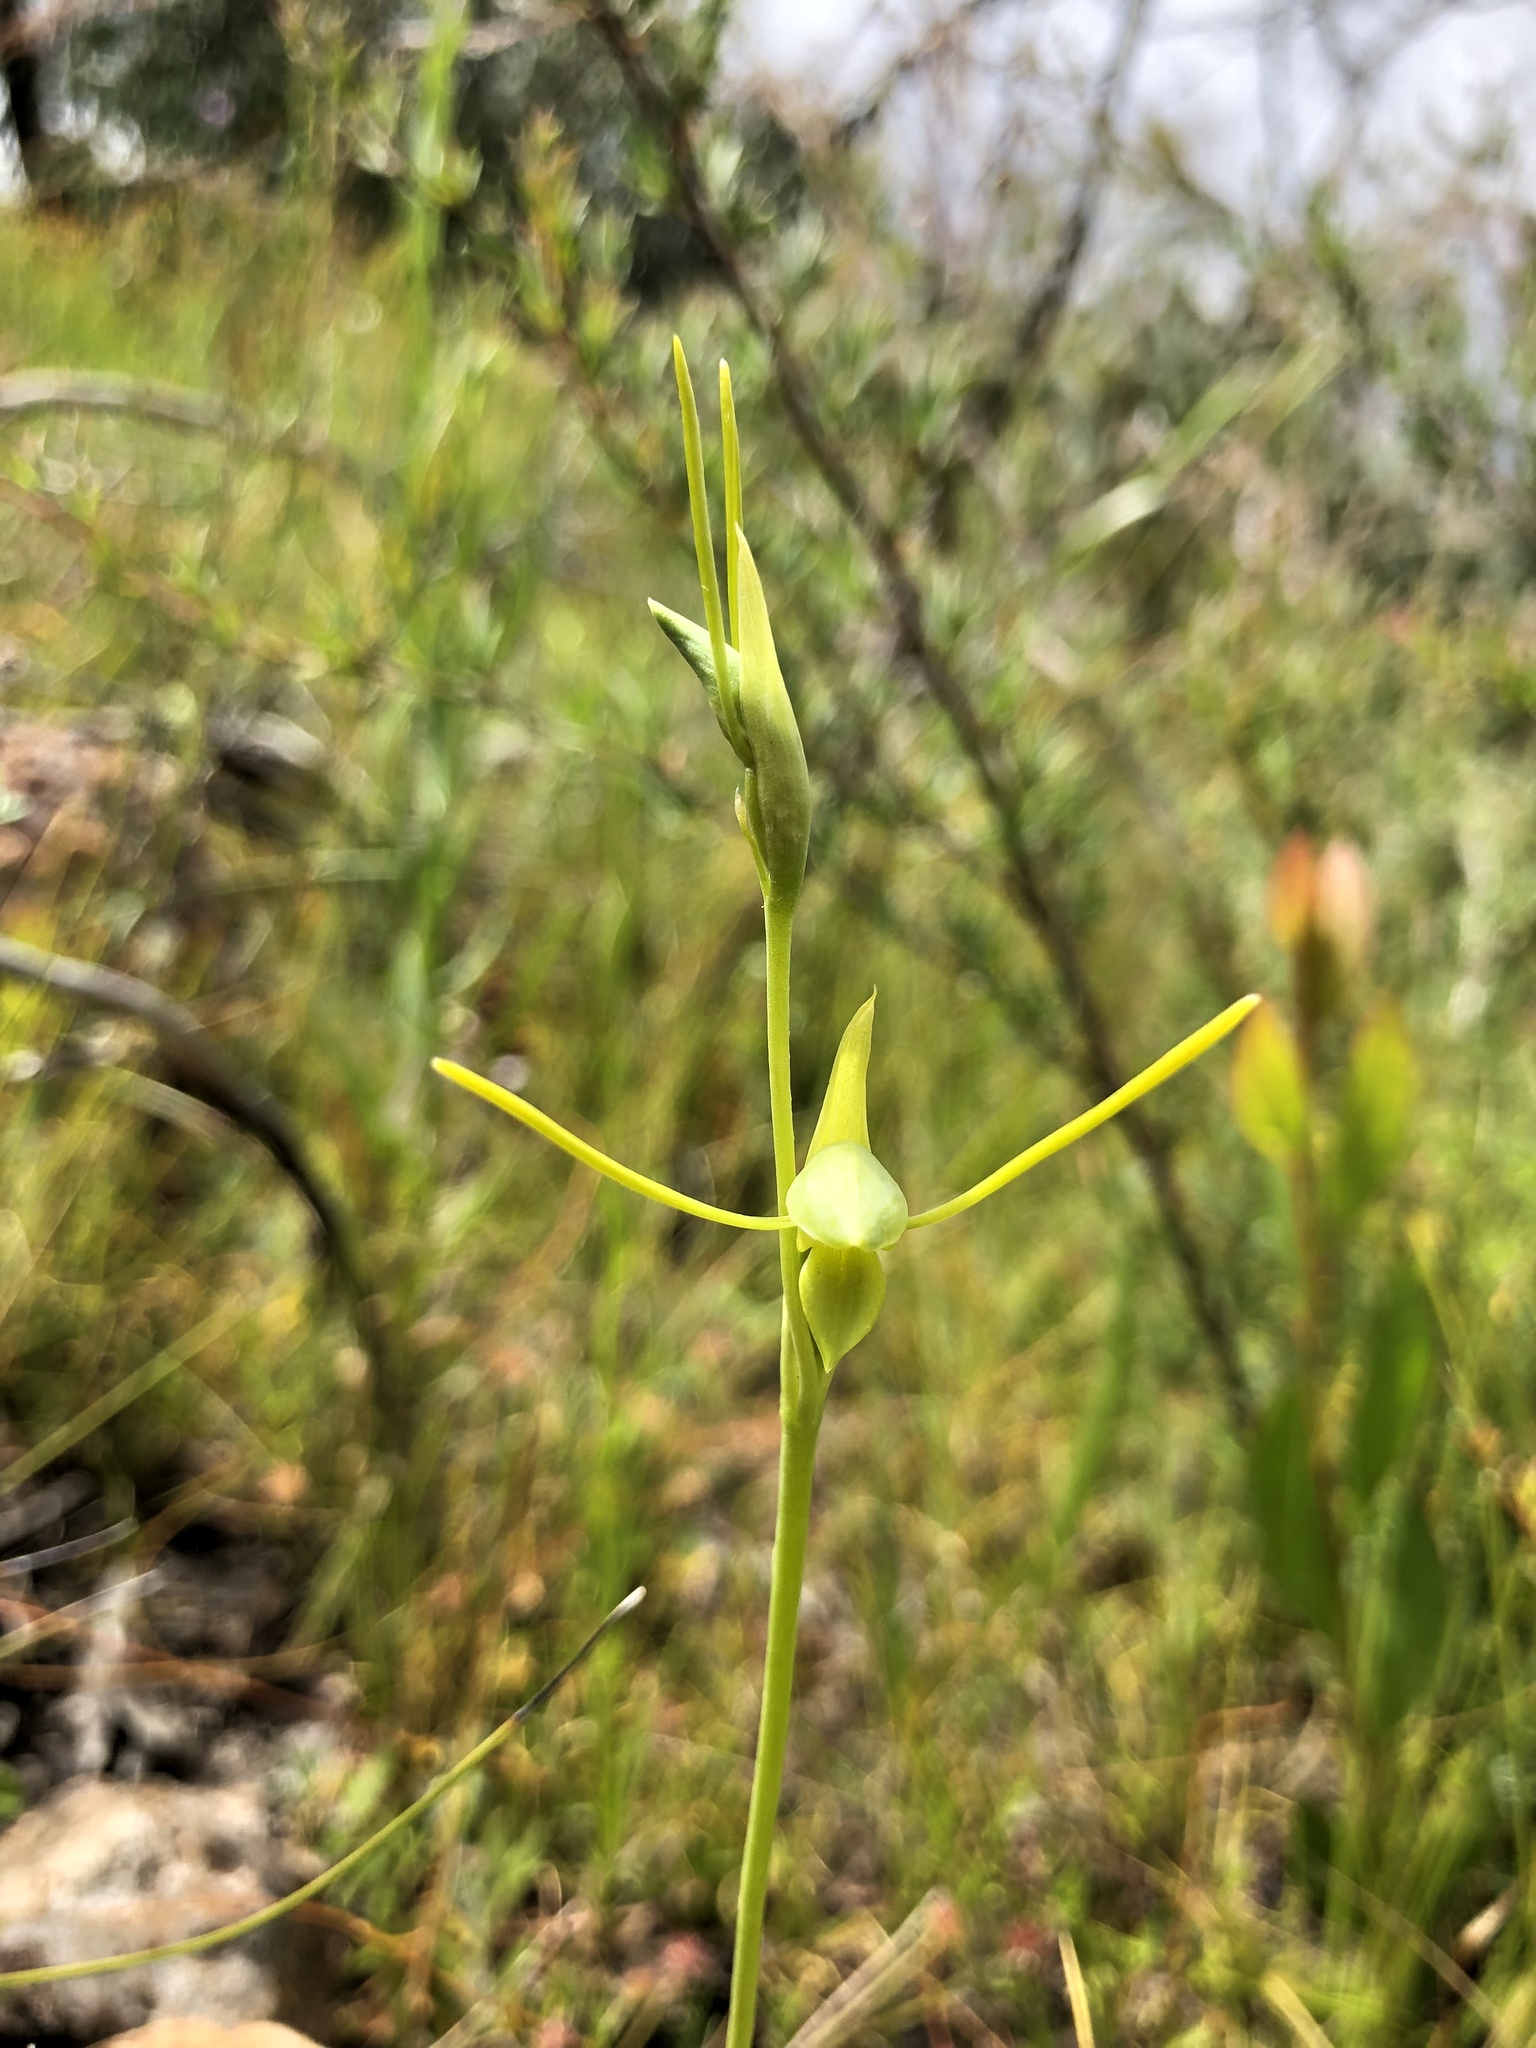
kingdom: Plantae
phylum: Tracheophyta
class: Liliopsida
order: Asparagales
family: Orchidaceae
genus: Orthoceras
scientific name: Orthoceras strictum
